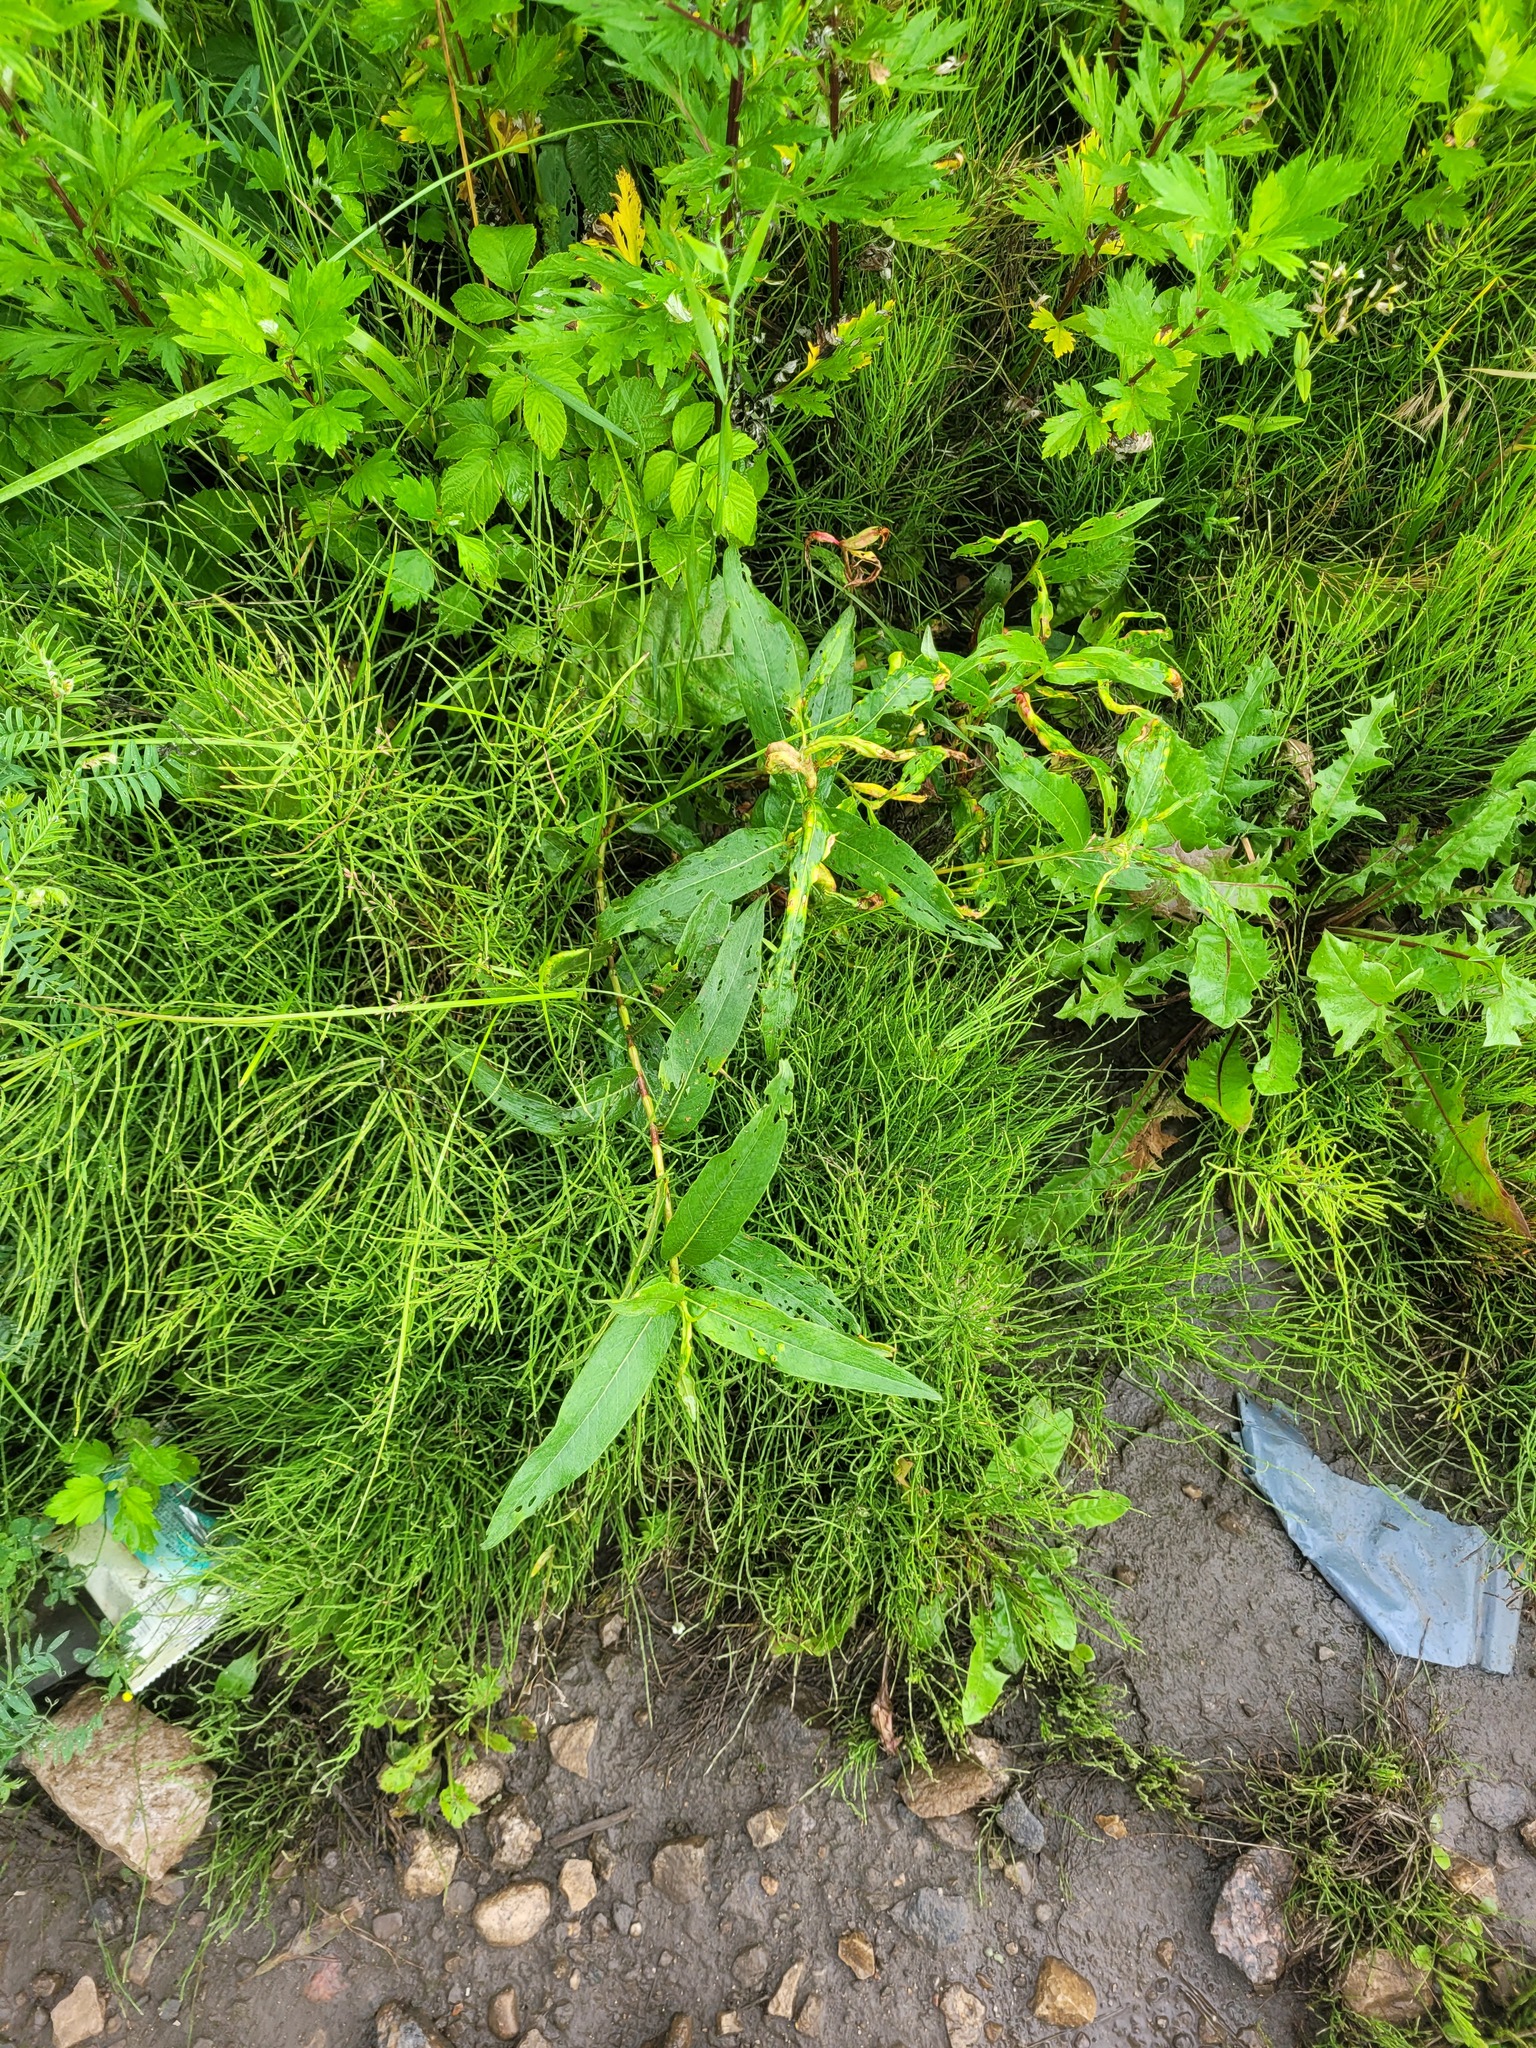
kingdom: Plantae
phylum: Tracheophyta
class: Magnoliopsida
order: Caryophyllales
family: Polygonaceae
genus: Persicaria
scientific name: Persicaria amphibia
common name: Amphibious bistort
